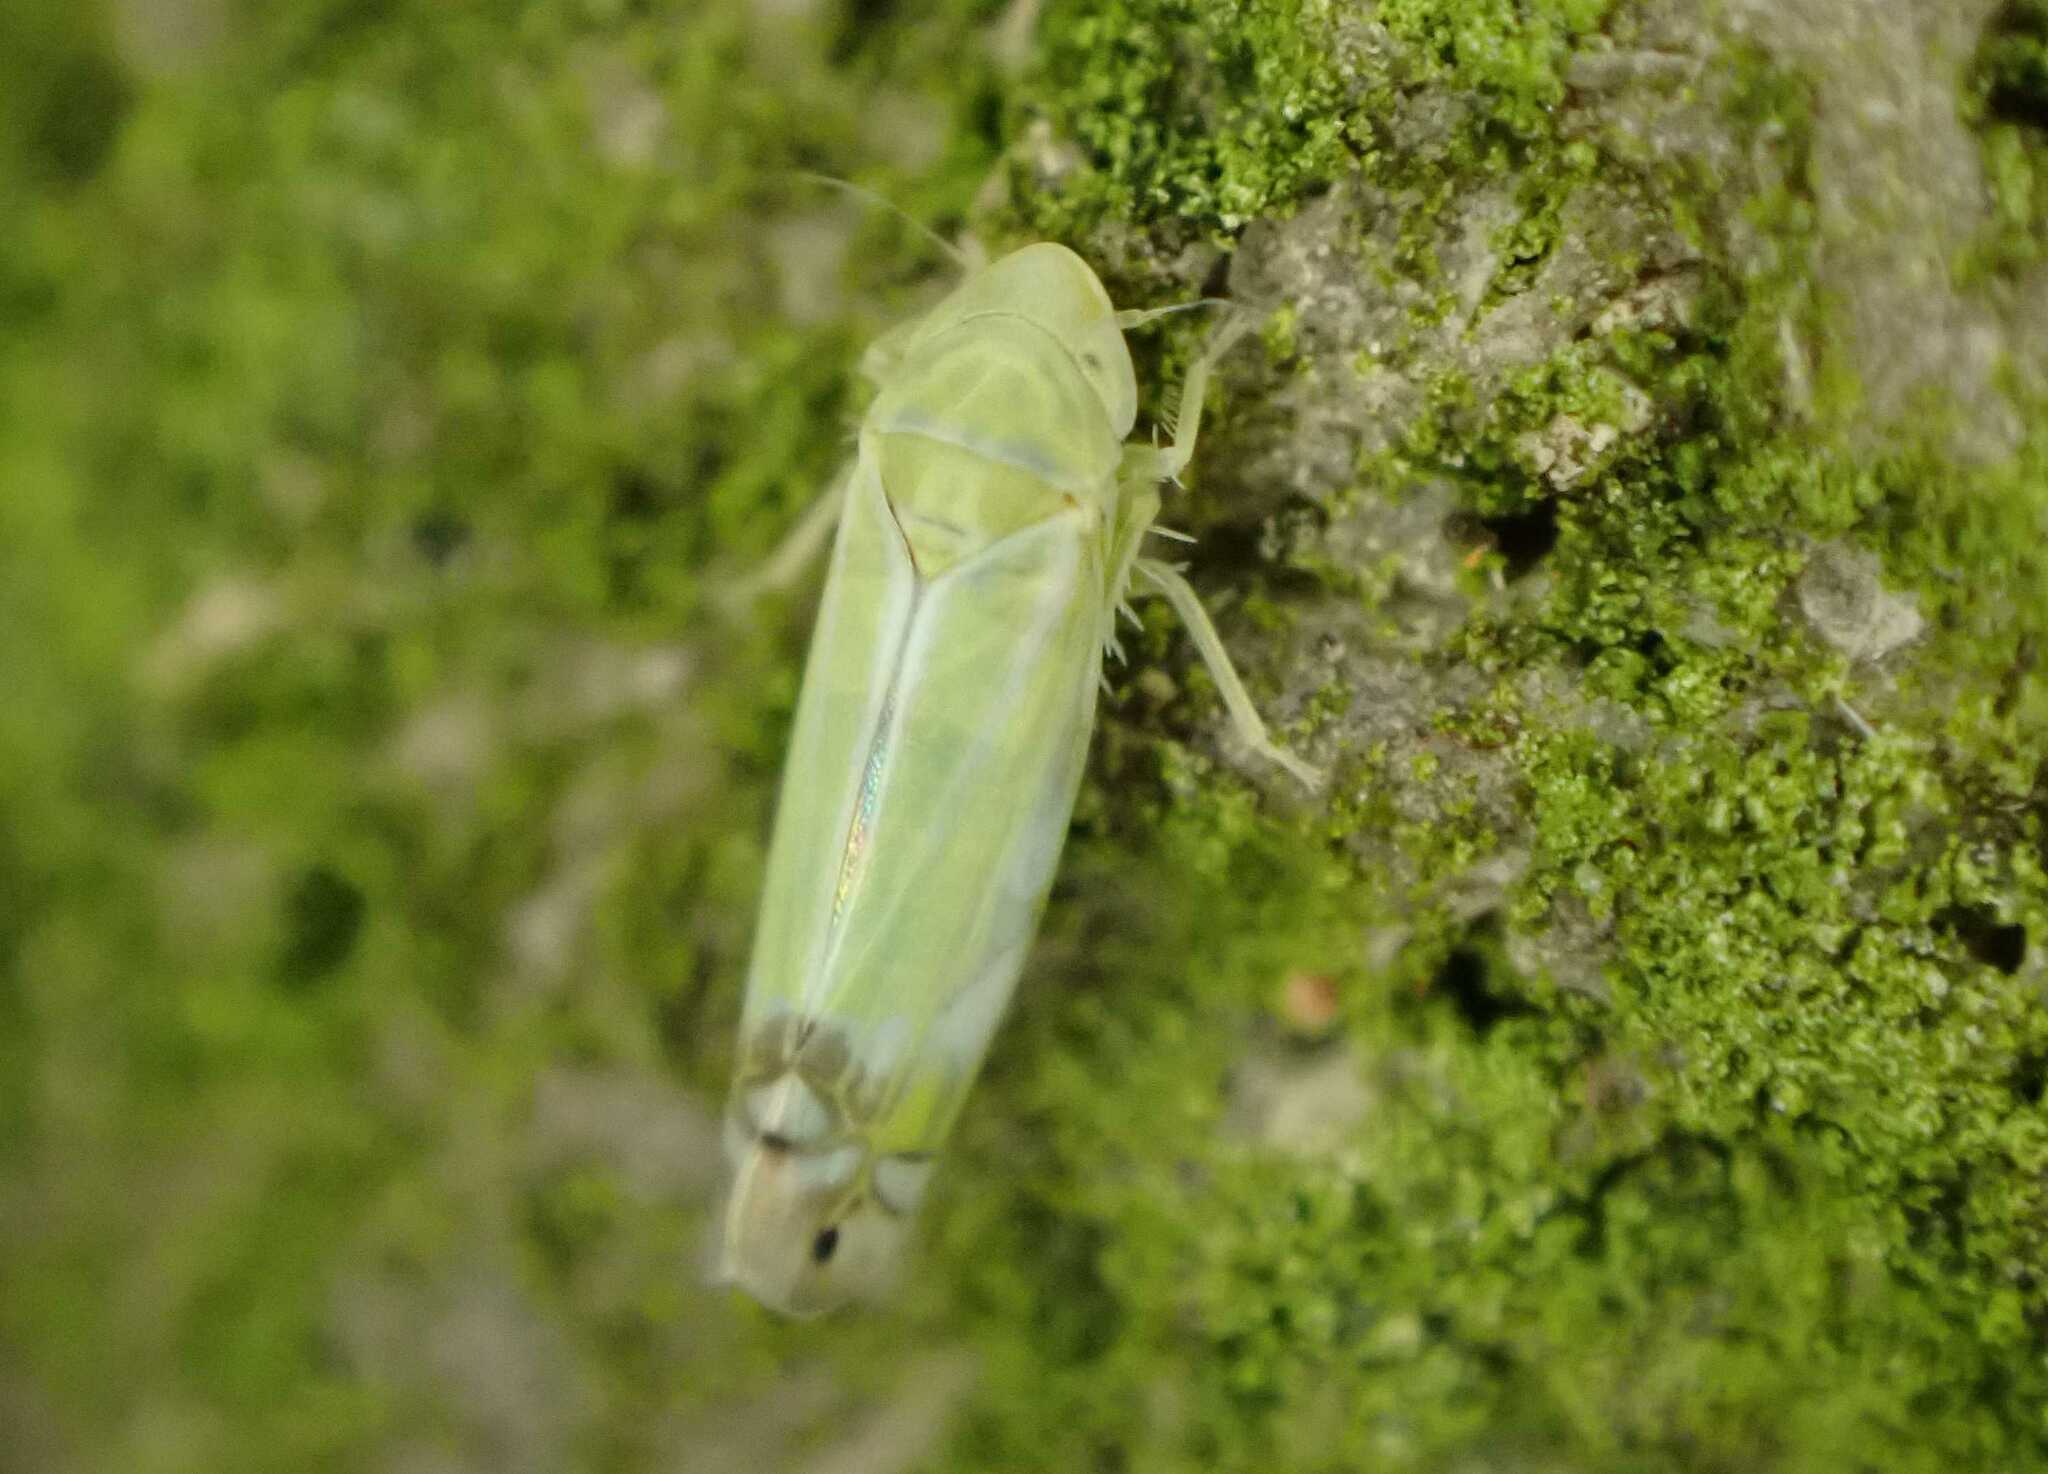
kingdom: Animalia
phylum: Arthropoda
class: Insecta
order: Hemiptera
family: Cicadellidae
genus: Zyginella
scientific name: Zyginella pulchra
